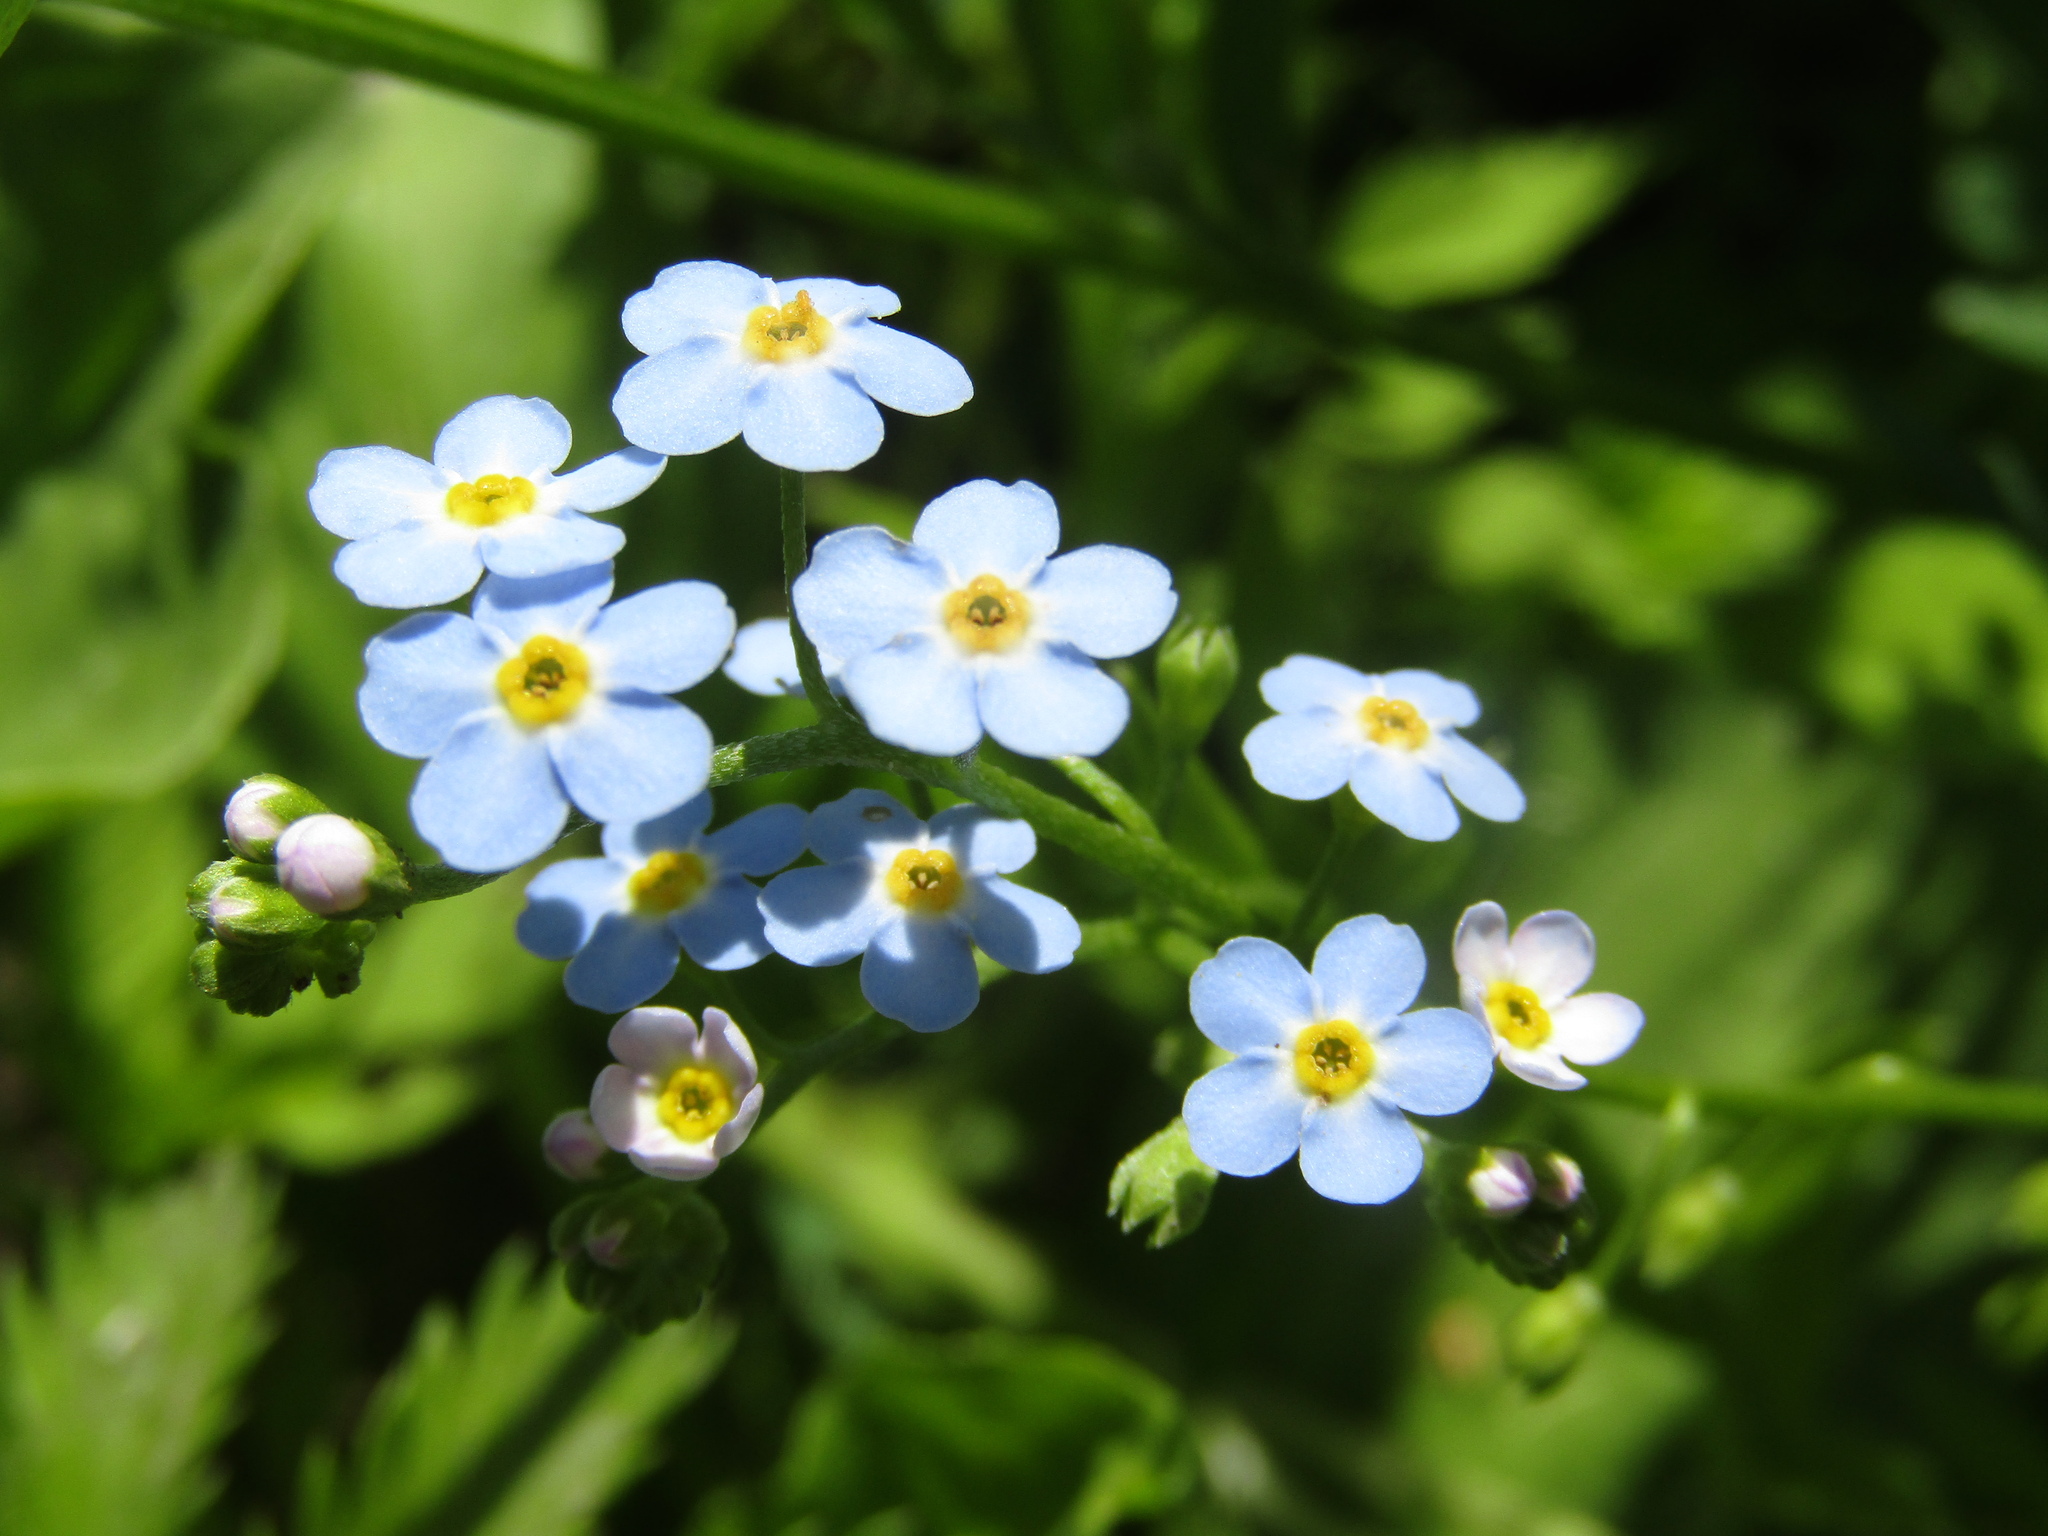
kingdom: Plantae
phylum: Tracheophyta
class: Magnoliopsida
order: Boraginales
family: Boraginaceae
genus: Myosotis
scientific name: Myosotis scorpioides
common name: Water forget-me-not
